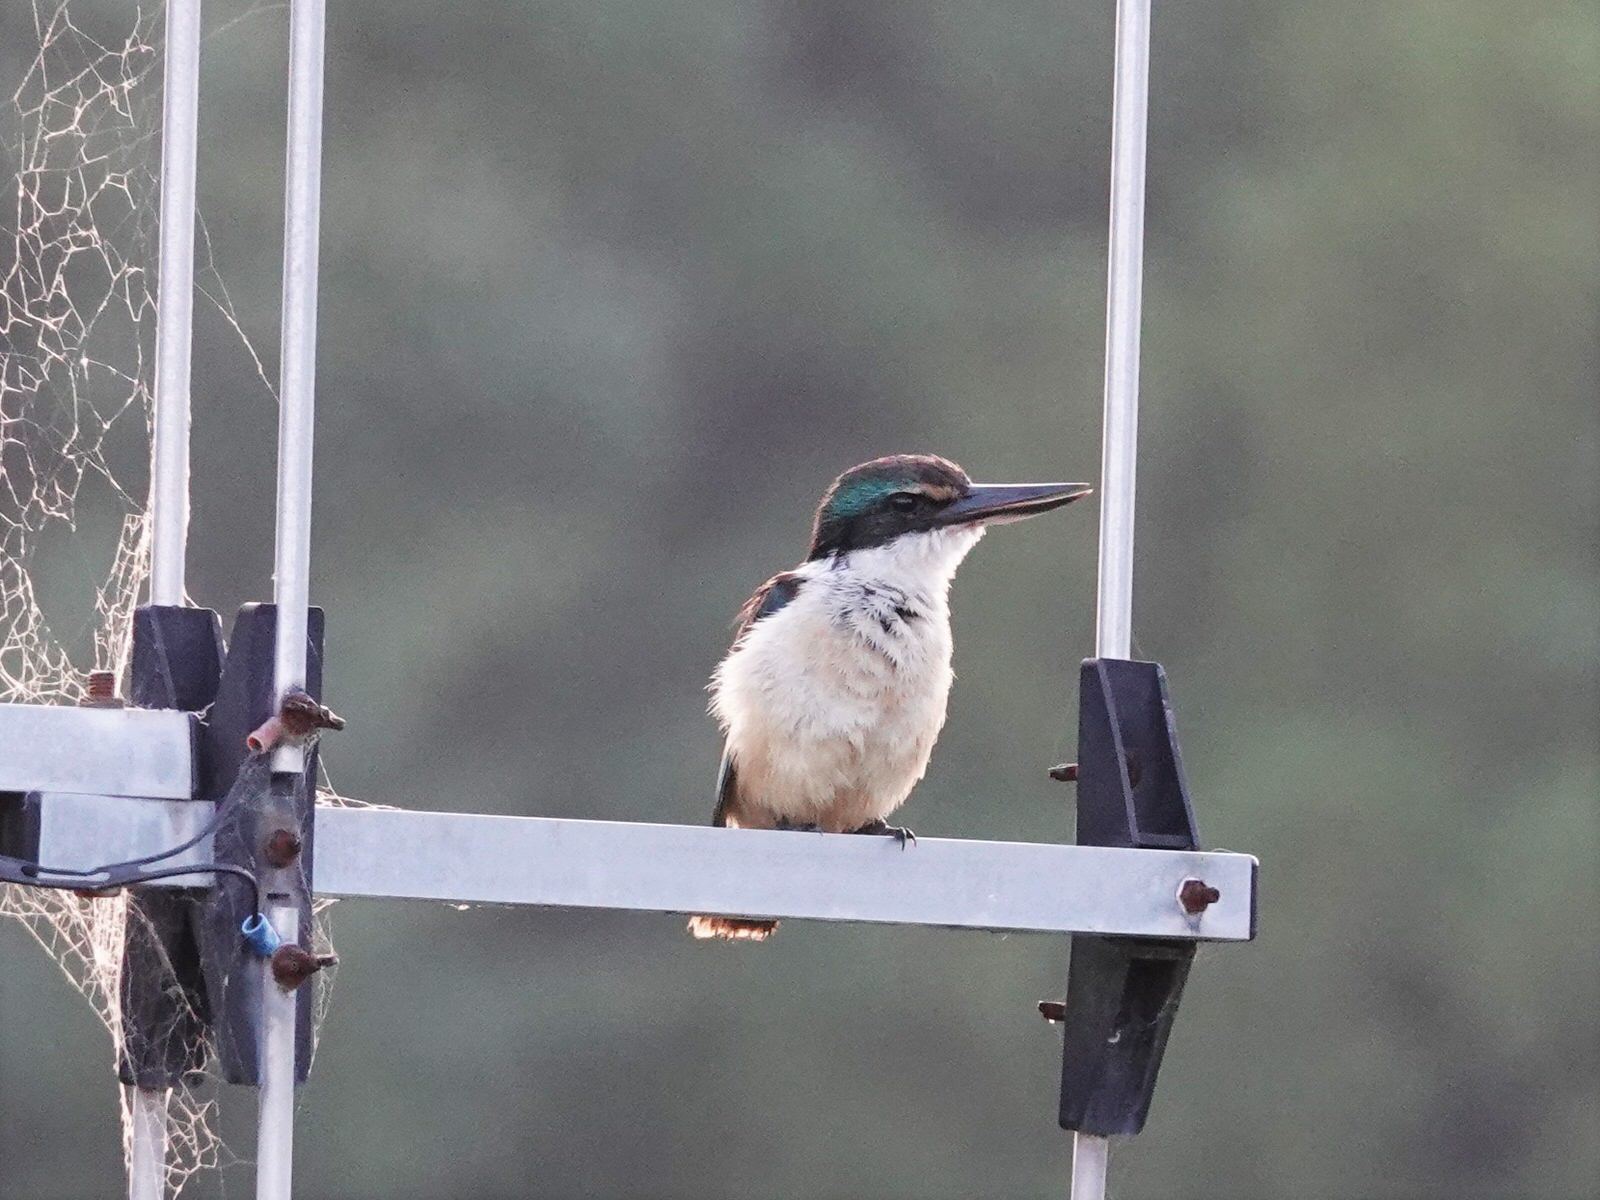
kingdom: Animalia
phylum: Chordata
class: Aves
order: Coraciiformes
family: Alcedinidae
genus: Todiramphus
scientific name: Todiramphus sanctus
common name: Sacred kingfisher
